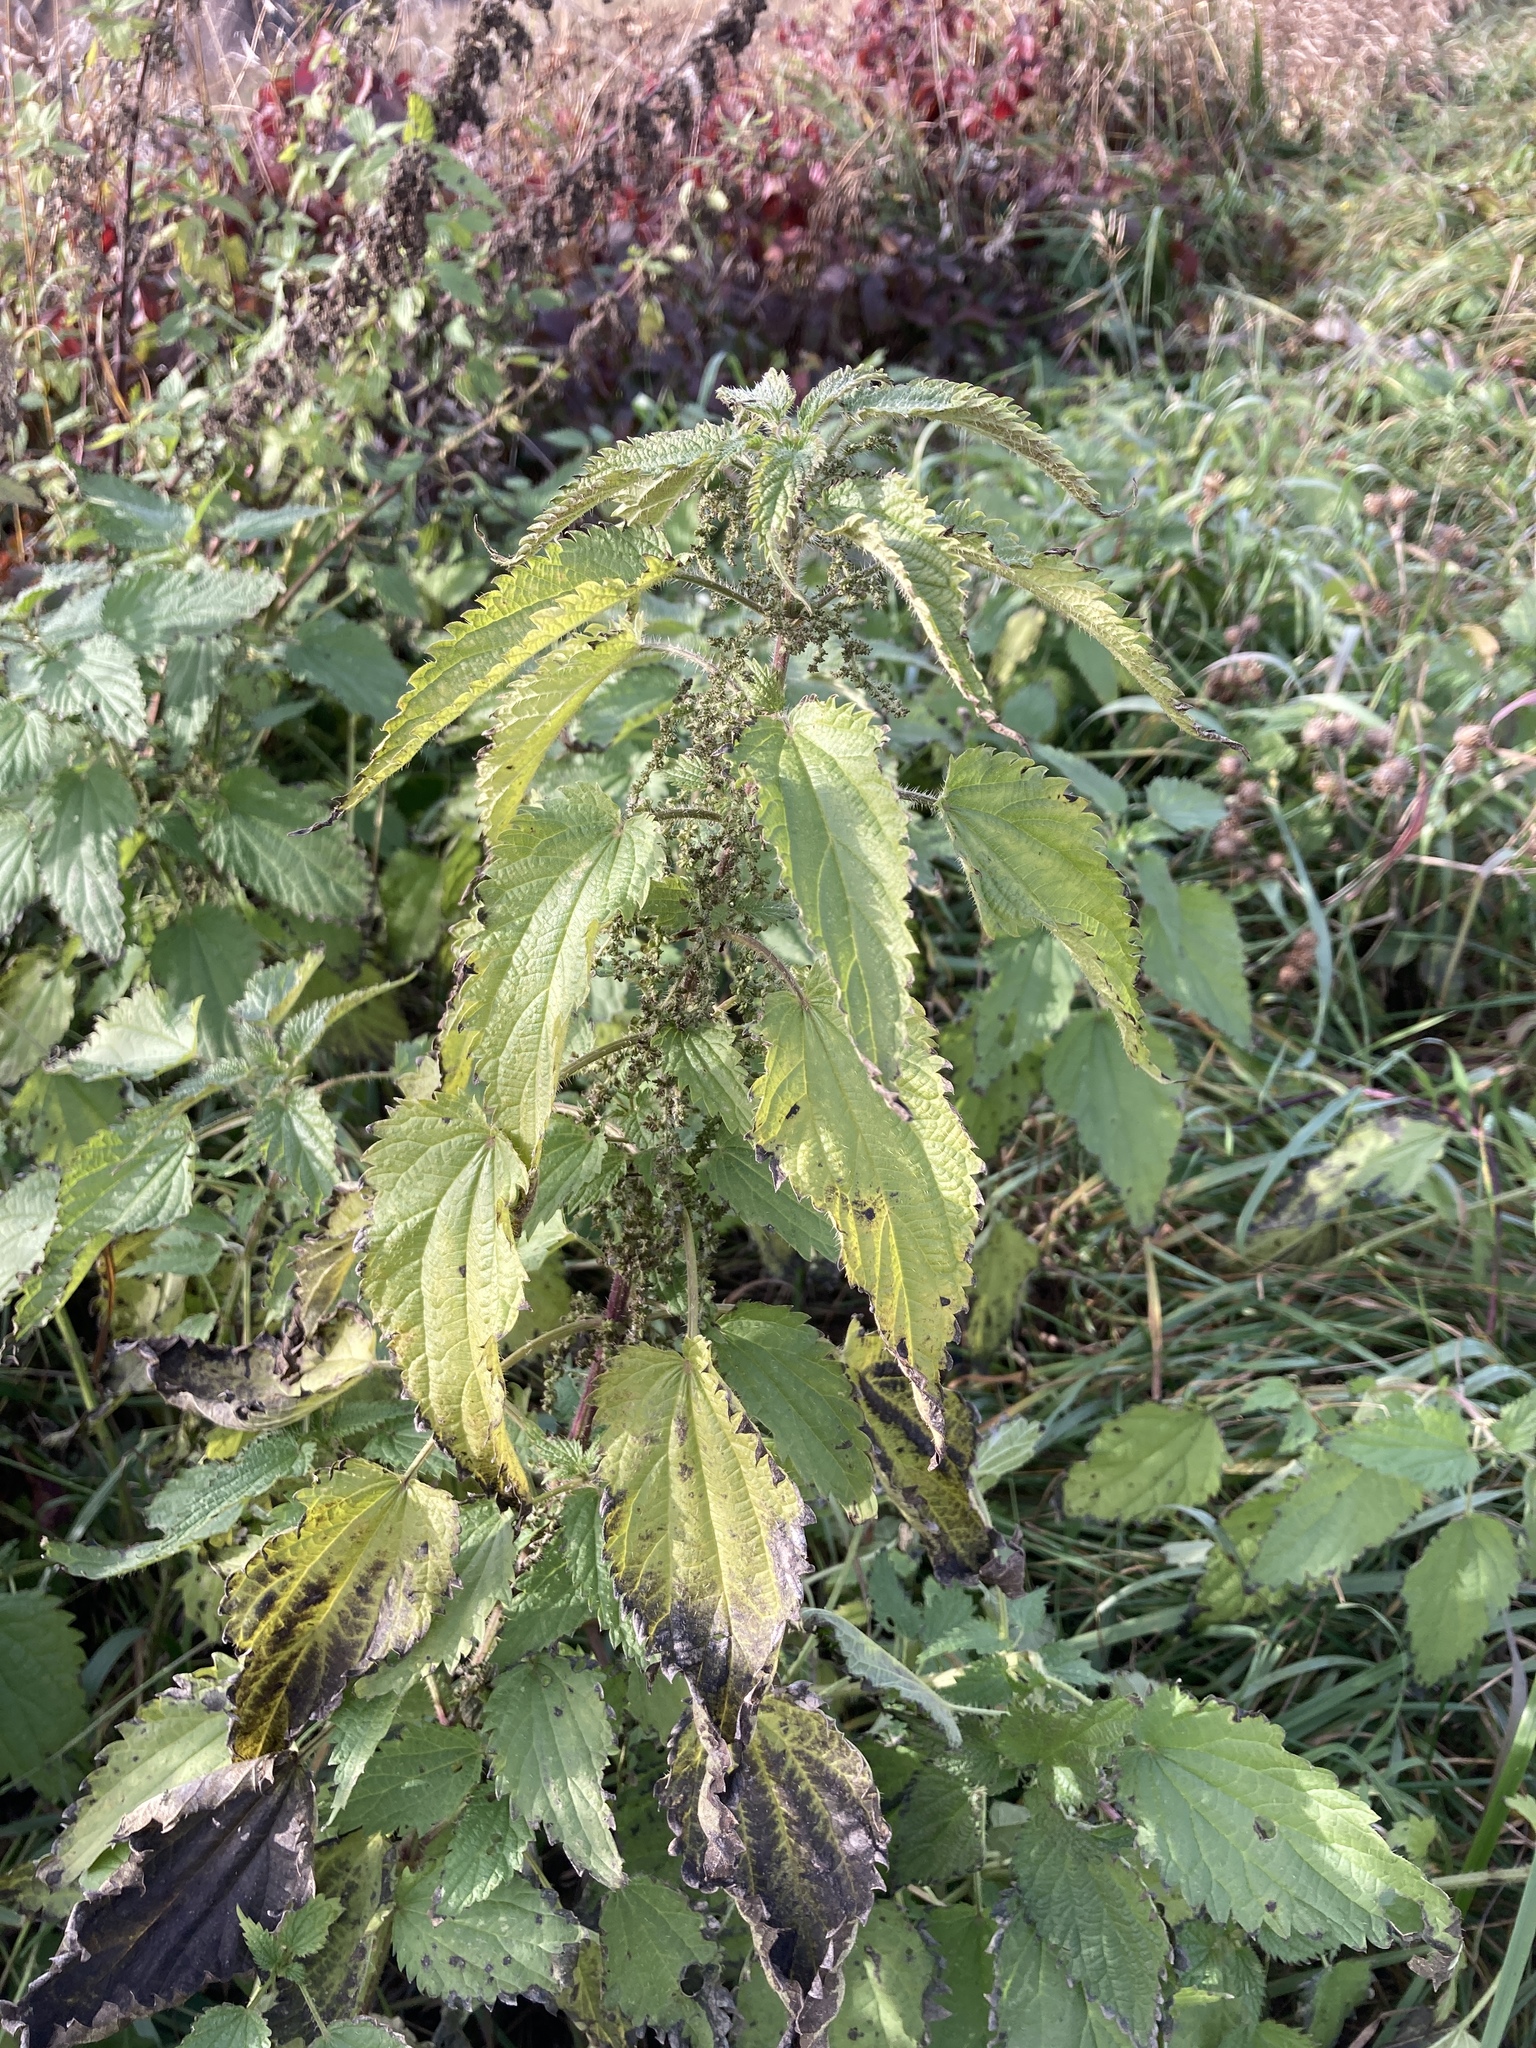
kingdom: Plantae
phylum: Tracheophyta
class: Magnoliopsida
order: Rosales
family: Urticaceae
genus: Urtica
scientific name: Urtica dioica
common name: Common nettle
